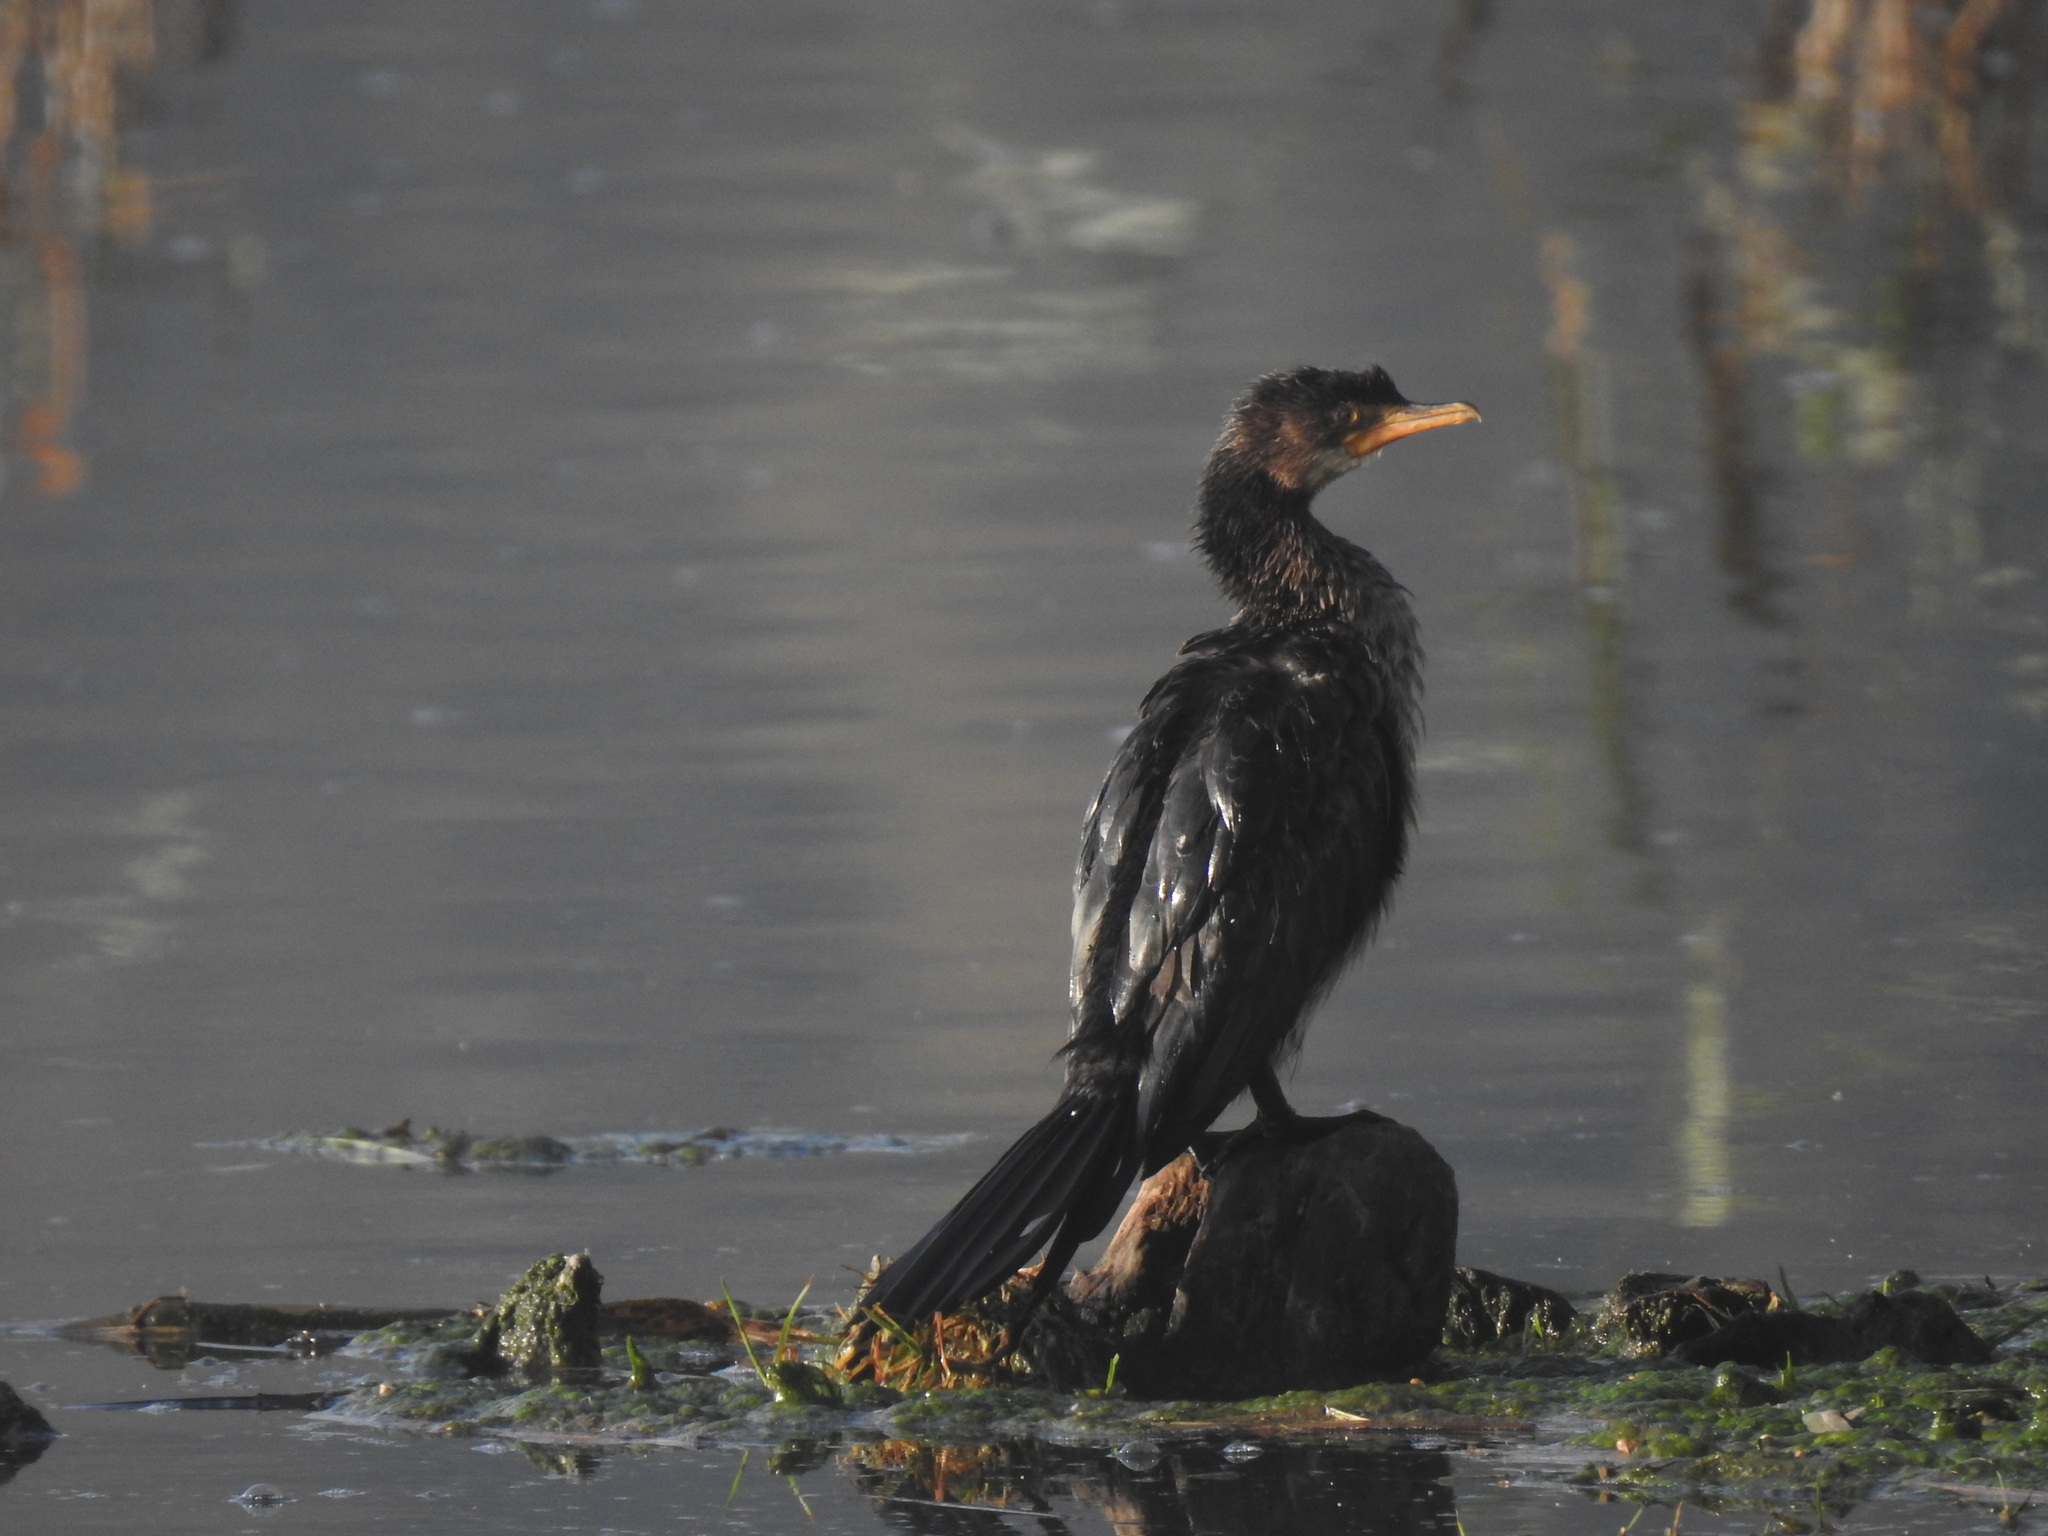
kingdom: Animalia
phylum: Chordata
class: Aves
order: Suliformes
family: Phalacrocoracidae
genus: Microcarbo
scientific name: Microcarbo africanus
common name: Long-tailed cormorant
